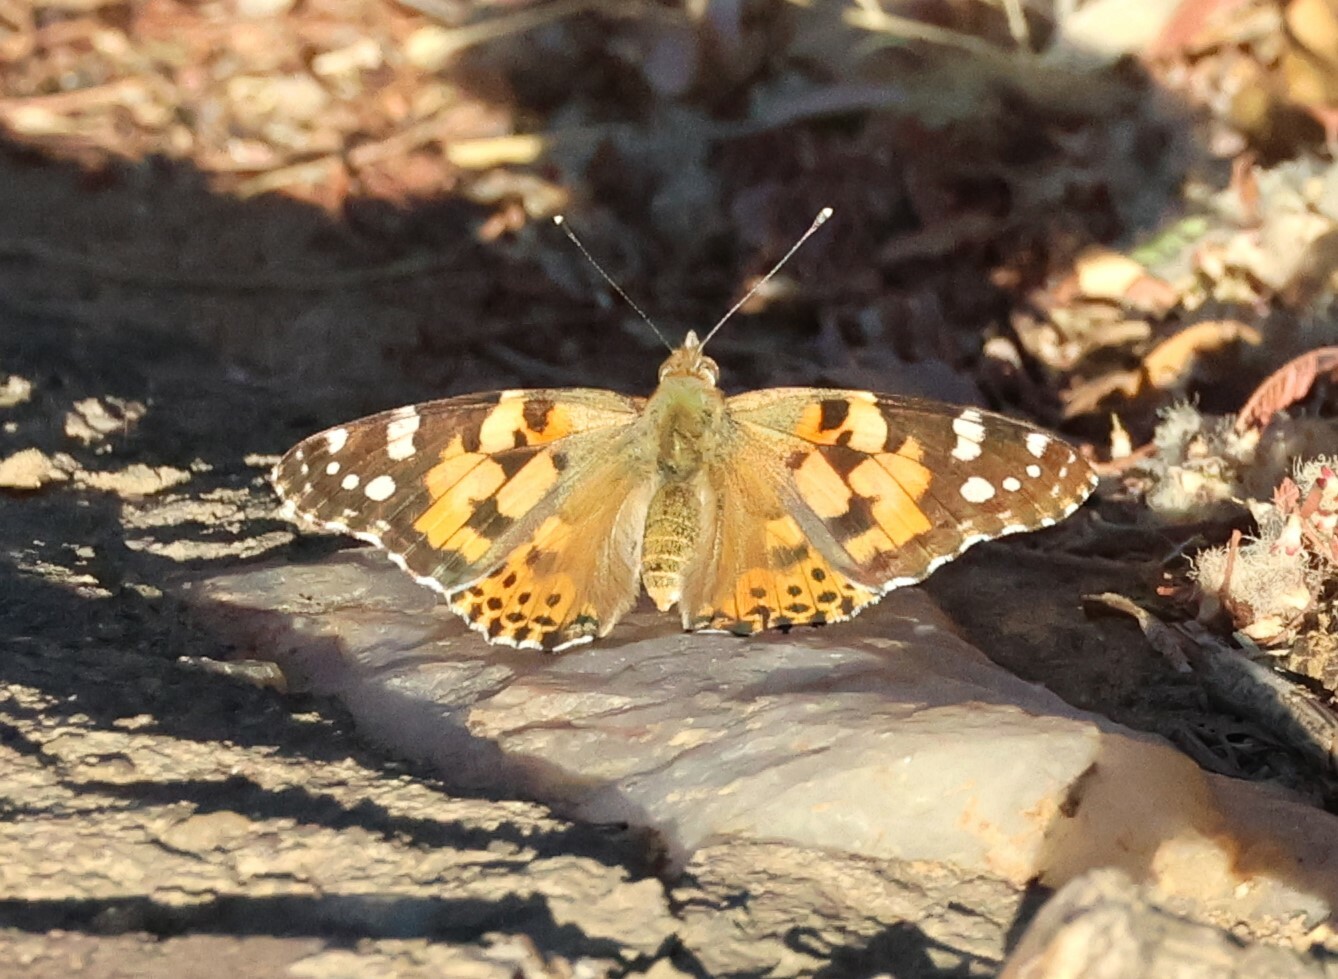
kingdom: Animalia
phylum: Arthropoda
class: Insecta
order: Lepidoptera
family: Nymphalidae
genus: Vanessa
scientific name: Vanessa cardui
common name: Painted lady
